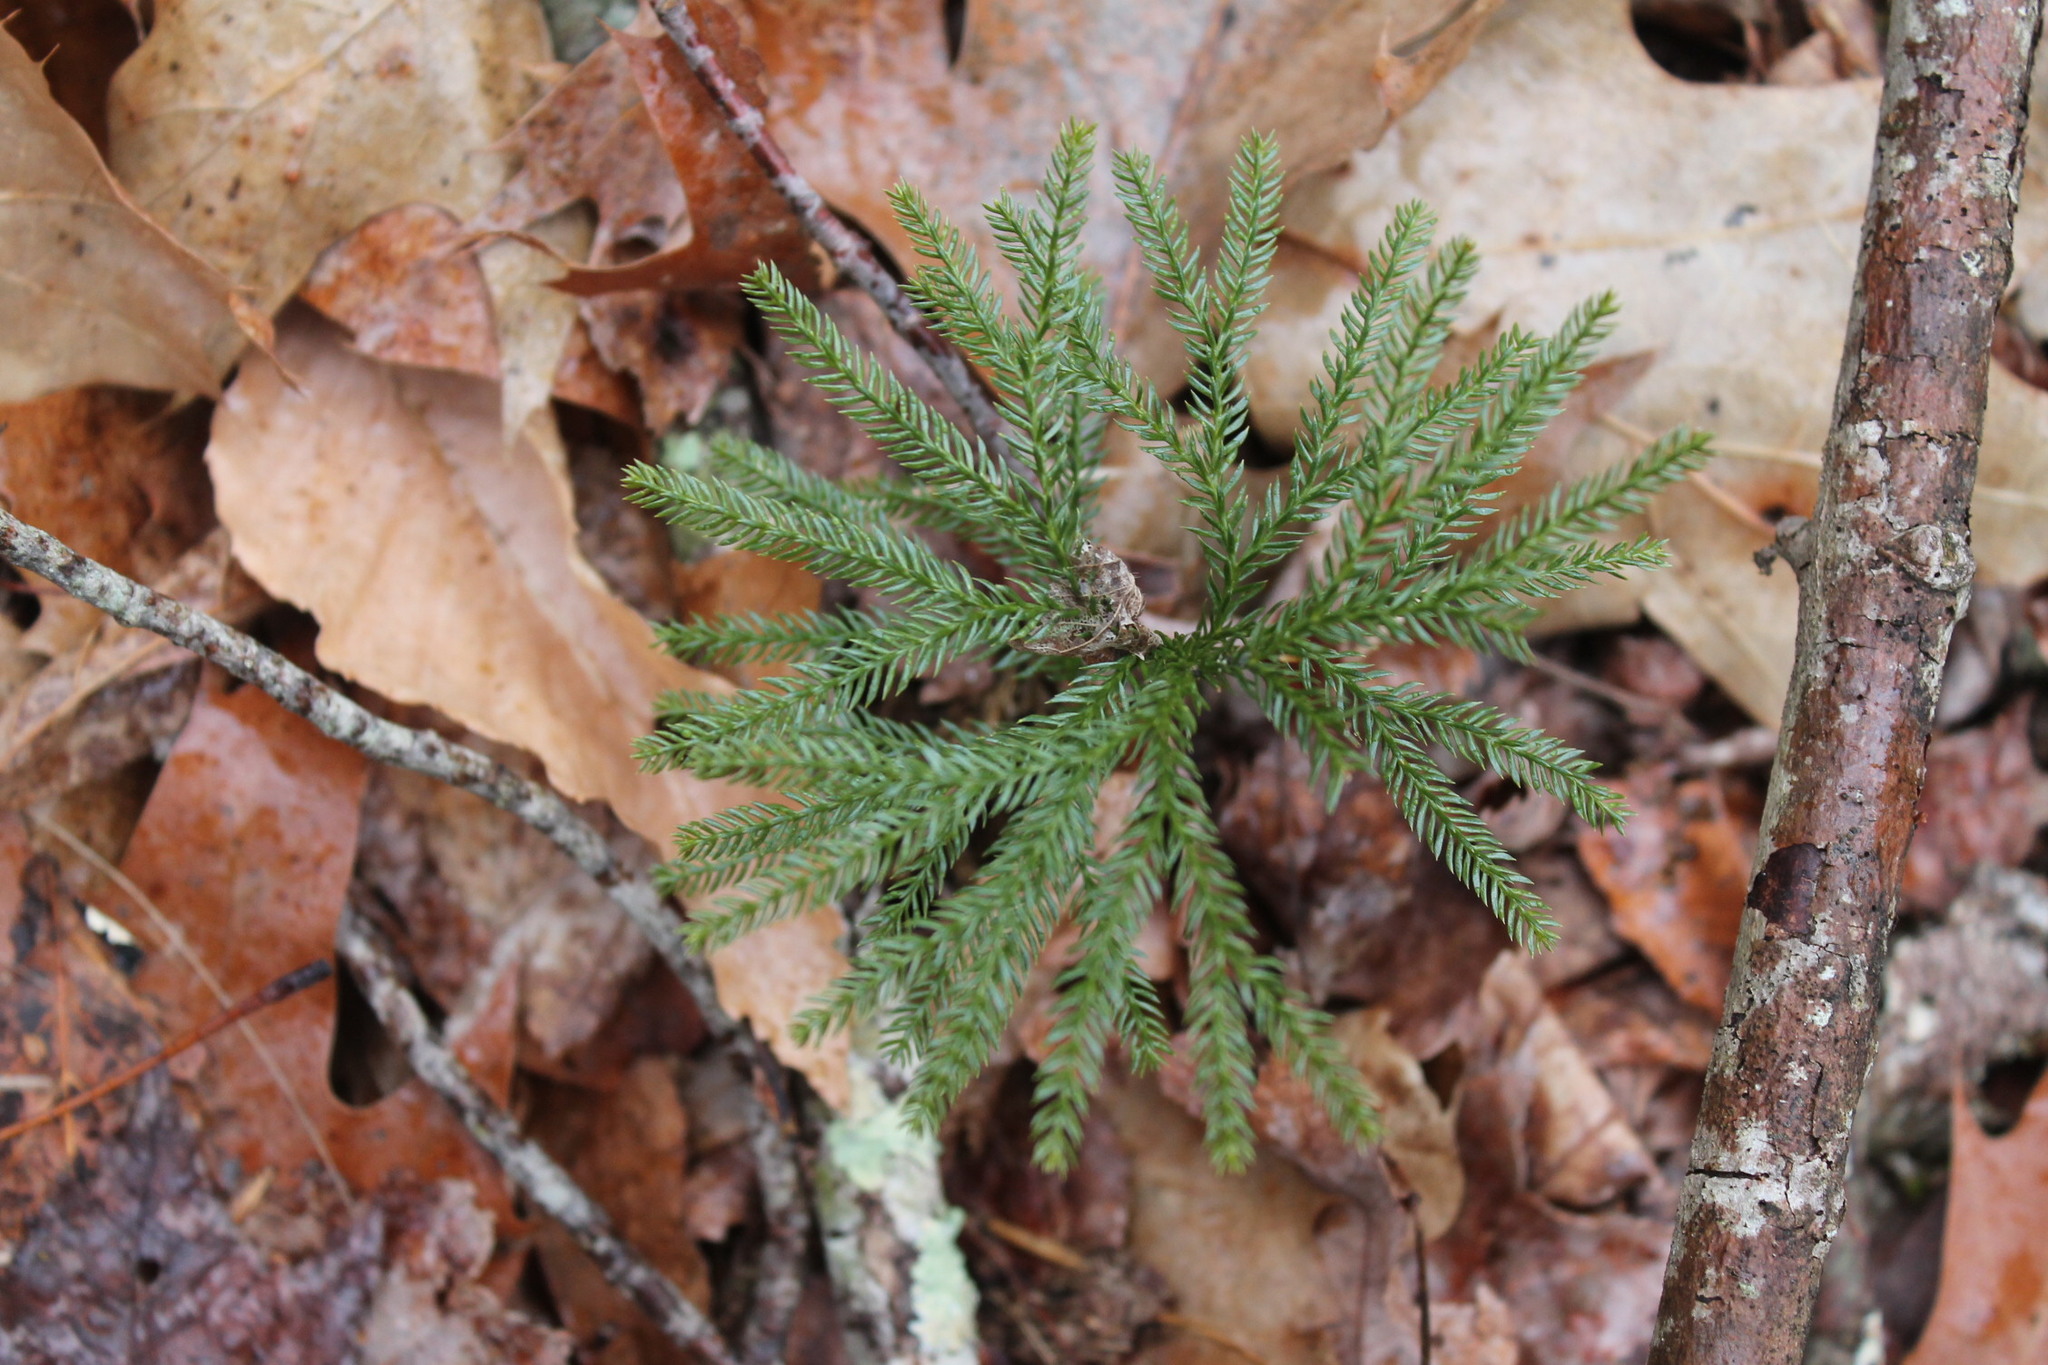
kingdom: Plantae
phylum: Tracheophyta
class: Lycopodiopsida
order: Lycopodiales
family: Lycopodiaceae
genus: Dendrolycopodium
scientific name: Dendrolycopodium obscurum
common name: Common ground-pine
